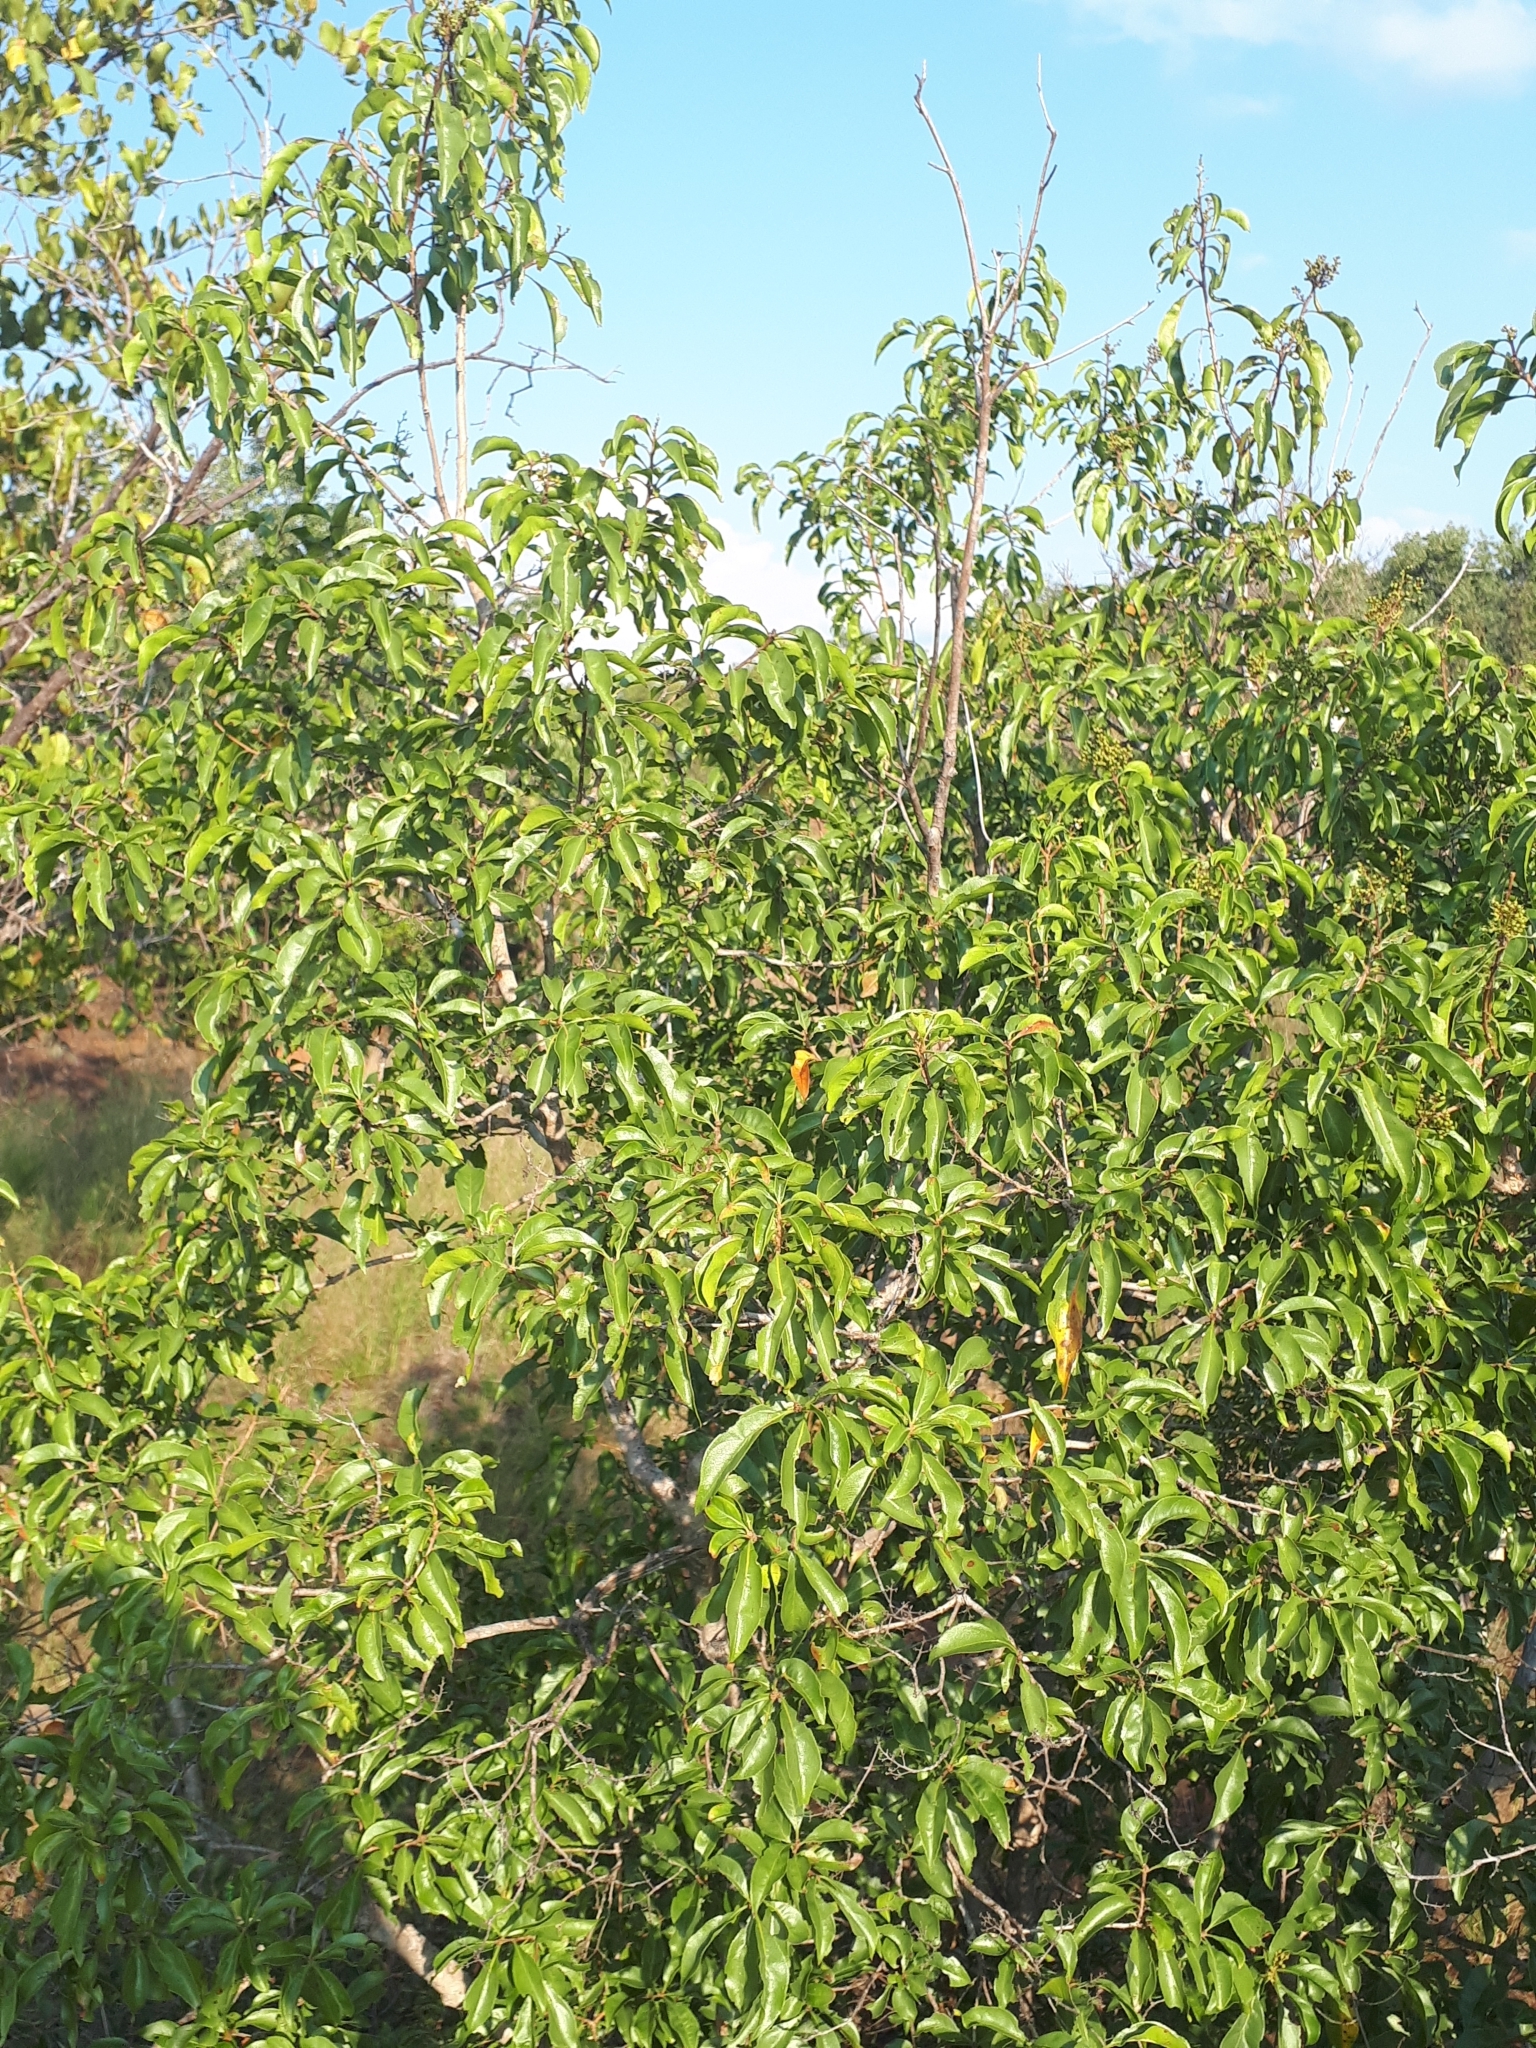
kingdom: Plantae
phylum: Tracheophyta
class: Magnoliopsida
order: Myrtales
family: Myrtaceae
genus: Heteropyxis
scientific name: Heteropyxis natalensis
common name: Lavender tree
